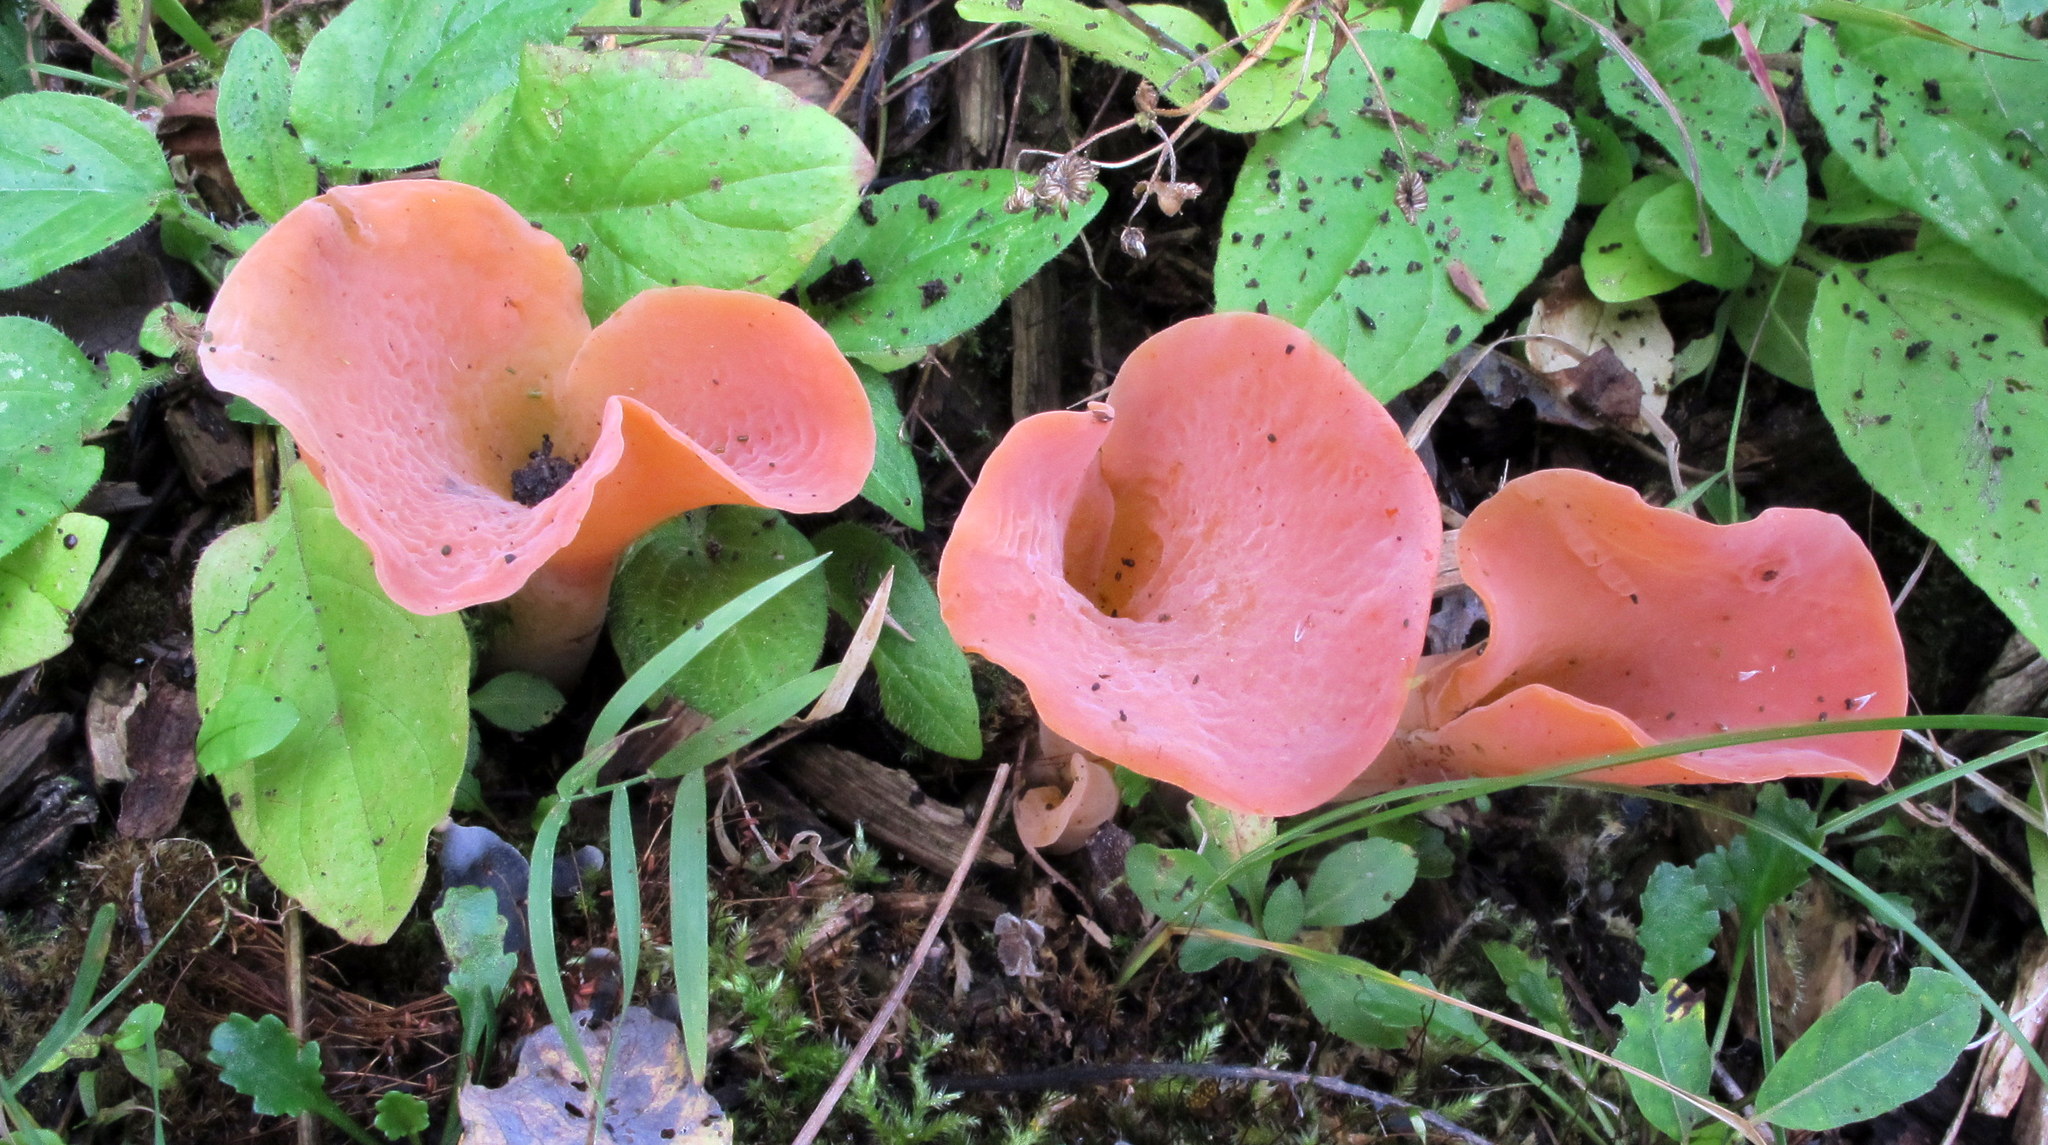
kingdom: Fungi
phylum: Basidiomycota
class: Agaricomycetes
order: Auriculariales
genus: Guepinia
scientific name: Guepinia helvelloides
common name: Salmon salad
